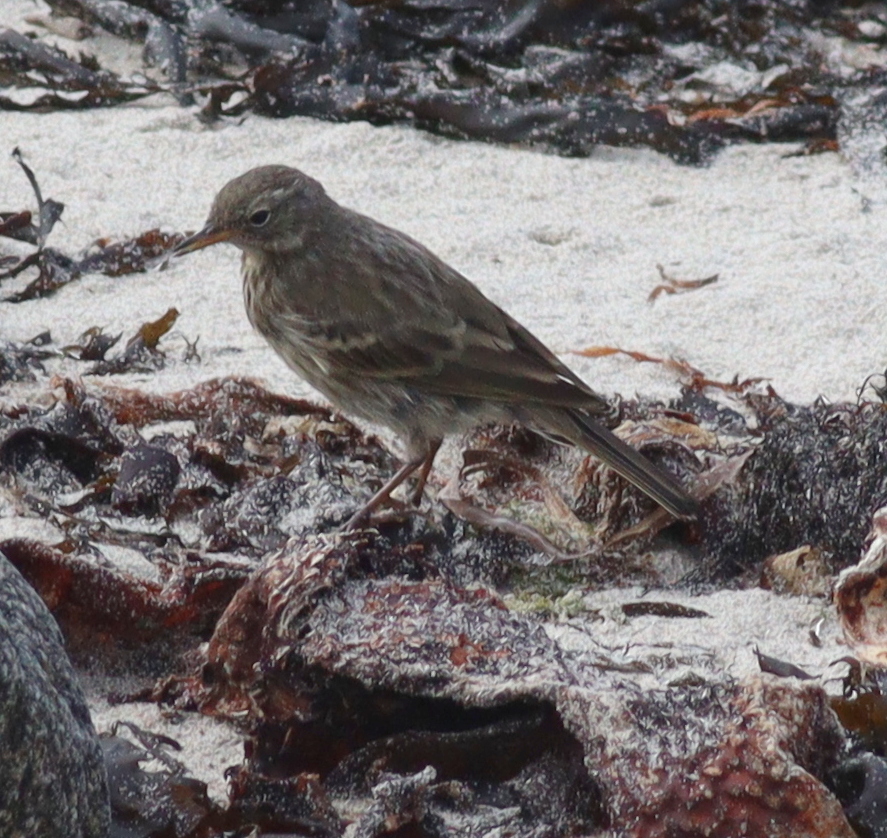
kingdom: Animalia
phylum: Chordata
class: Aves
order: Passeriformes
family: Motacillidae
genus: Anthus
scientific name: Anthus petrosus
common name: Eurasian rock pipit
